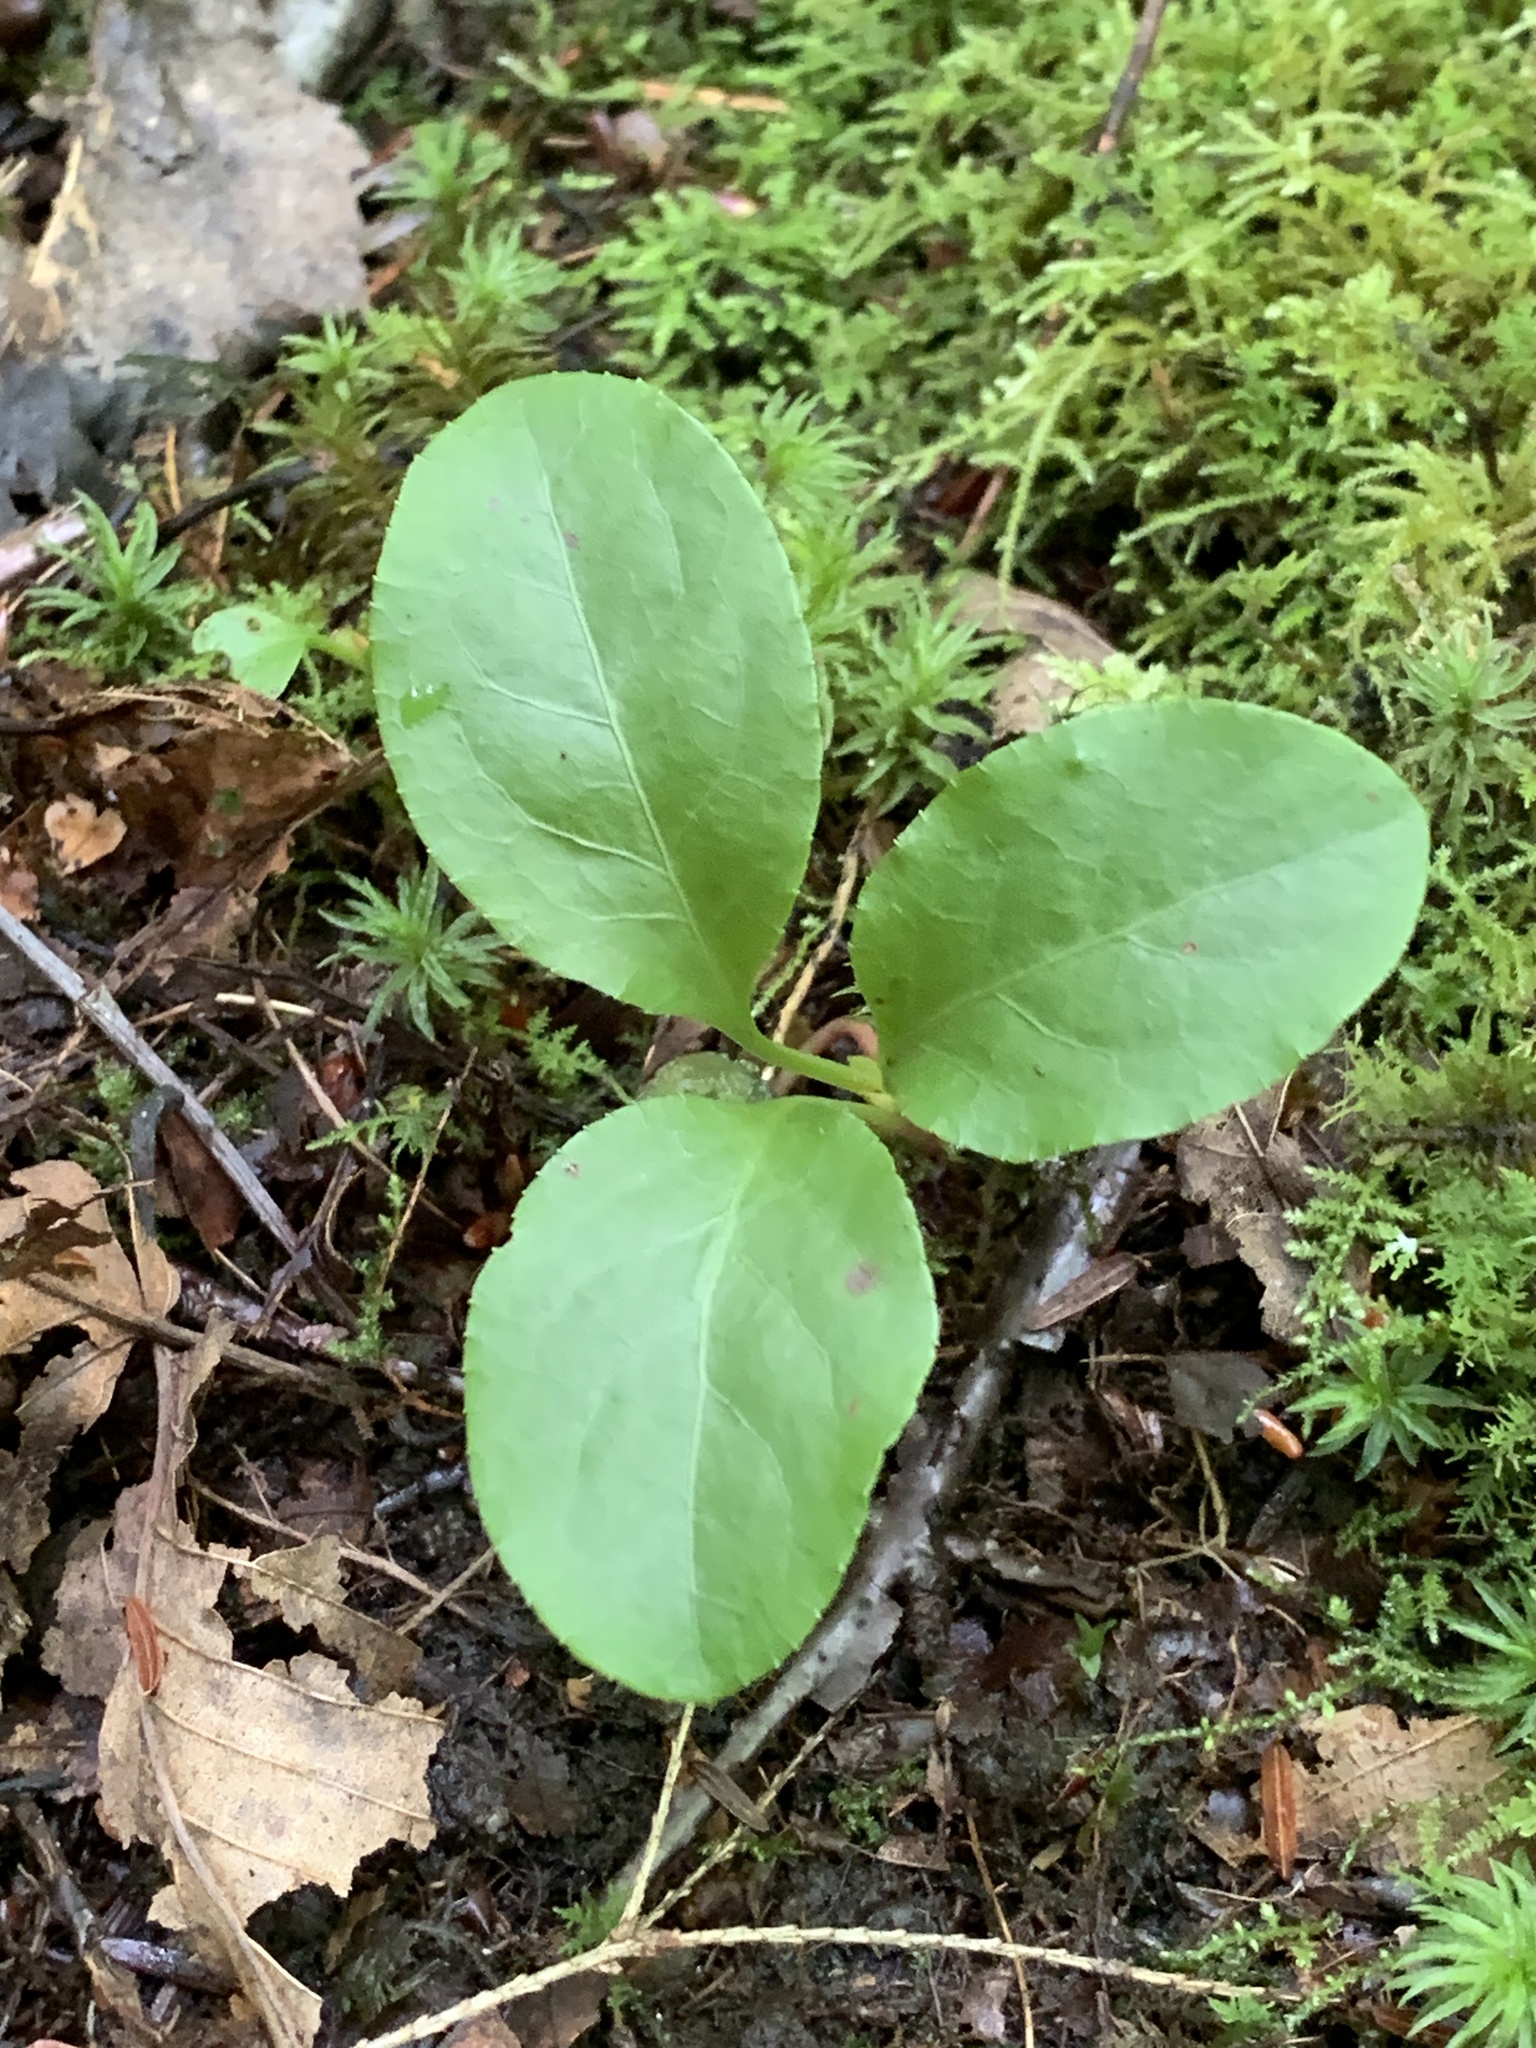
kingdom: Plantae
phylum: Tracheophyta
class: Magnoliopsida
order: Ericales
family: Ericaceae
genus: Pyrola
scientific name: Pyrola elliptica
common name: Shinleaf
